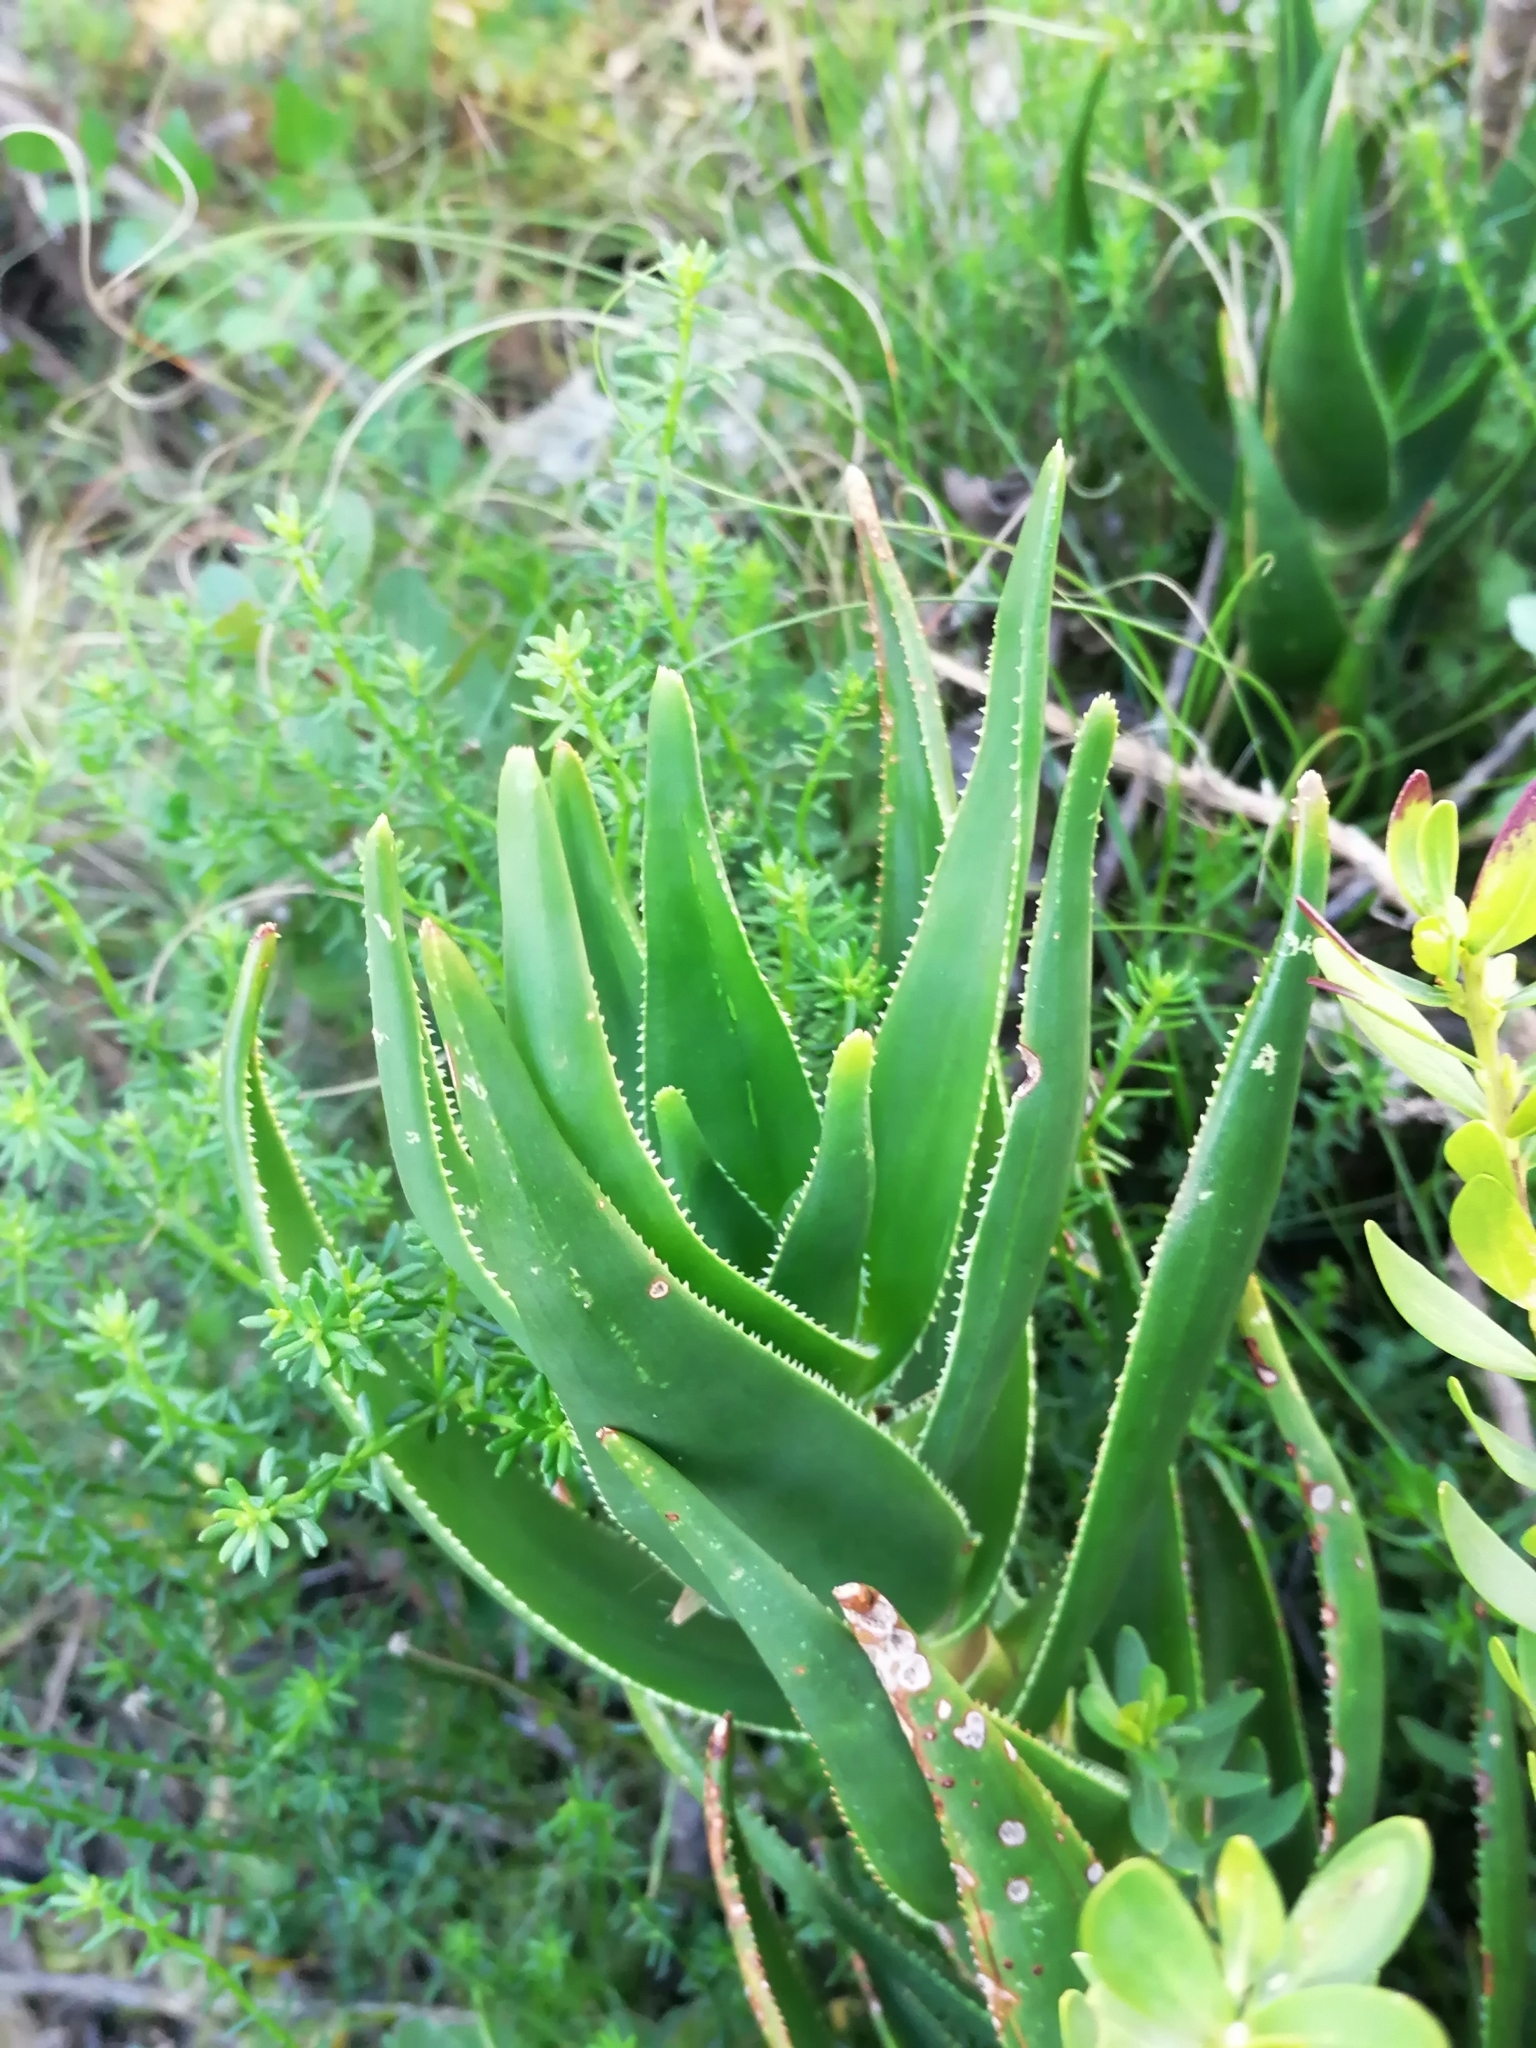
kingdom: Plantae
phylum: Tracheophyta
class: Liliopsida
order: Asparagales
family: Asphodelaceae
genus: Aloiampelos
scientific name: Aloiampelos commixta
